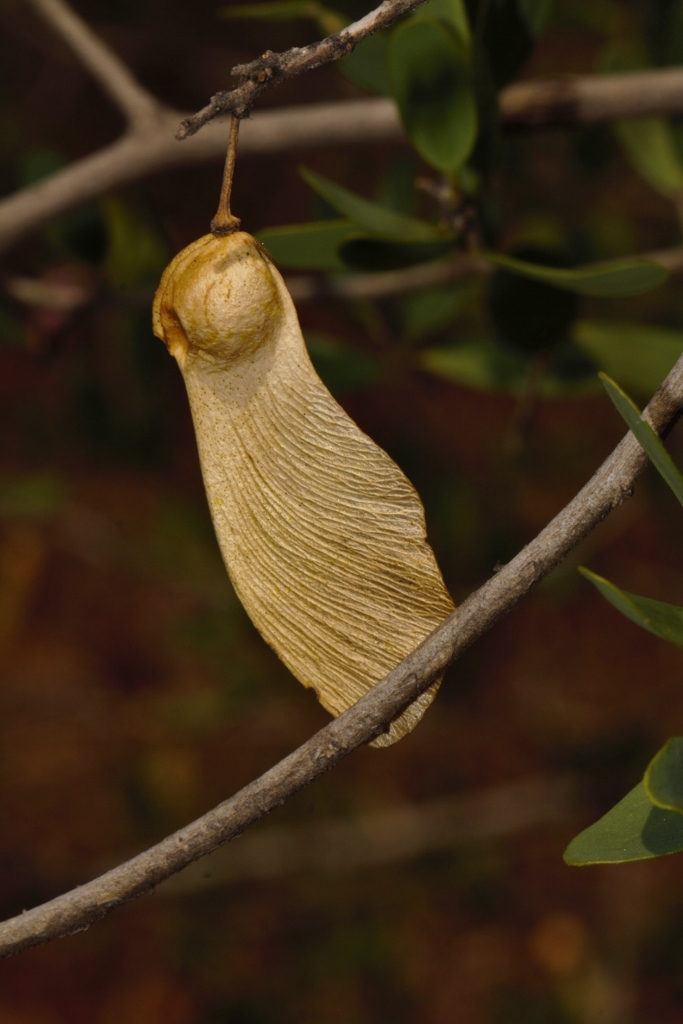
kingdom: Plantae
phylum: Tracheophyta
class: Magnoliopsida
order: Fabales
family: Polygalaceae
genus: Securidaca
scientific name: Securidaca longepedunculata
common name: Violet tree
